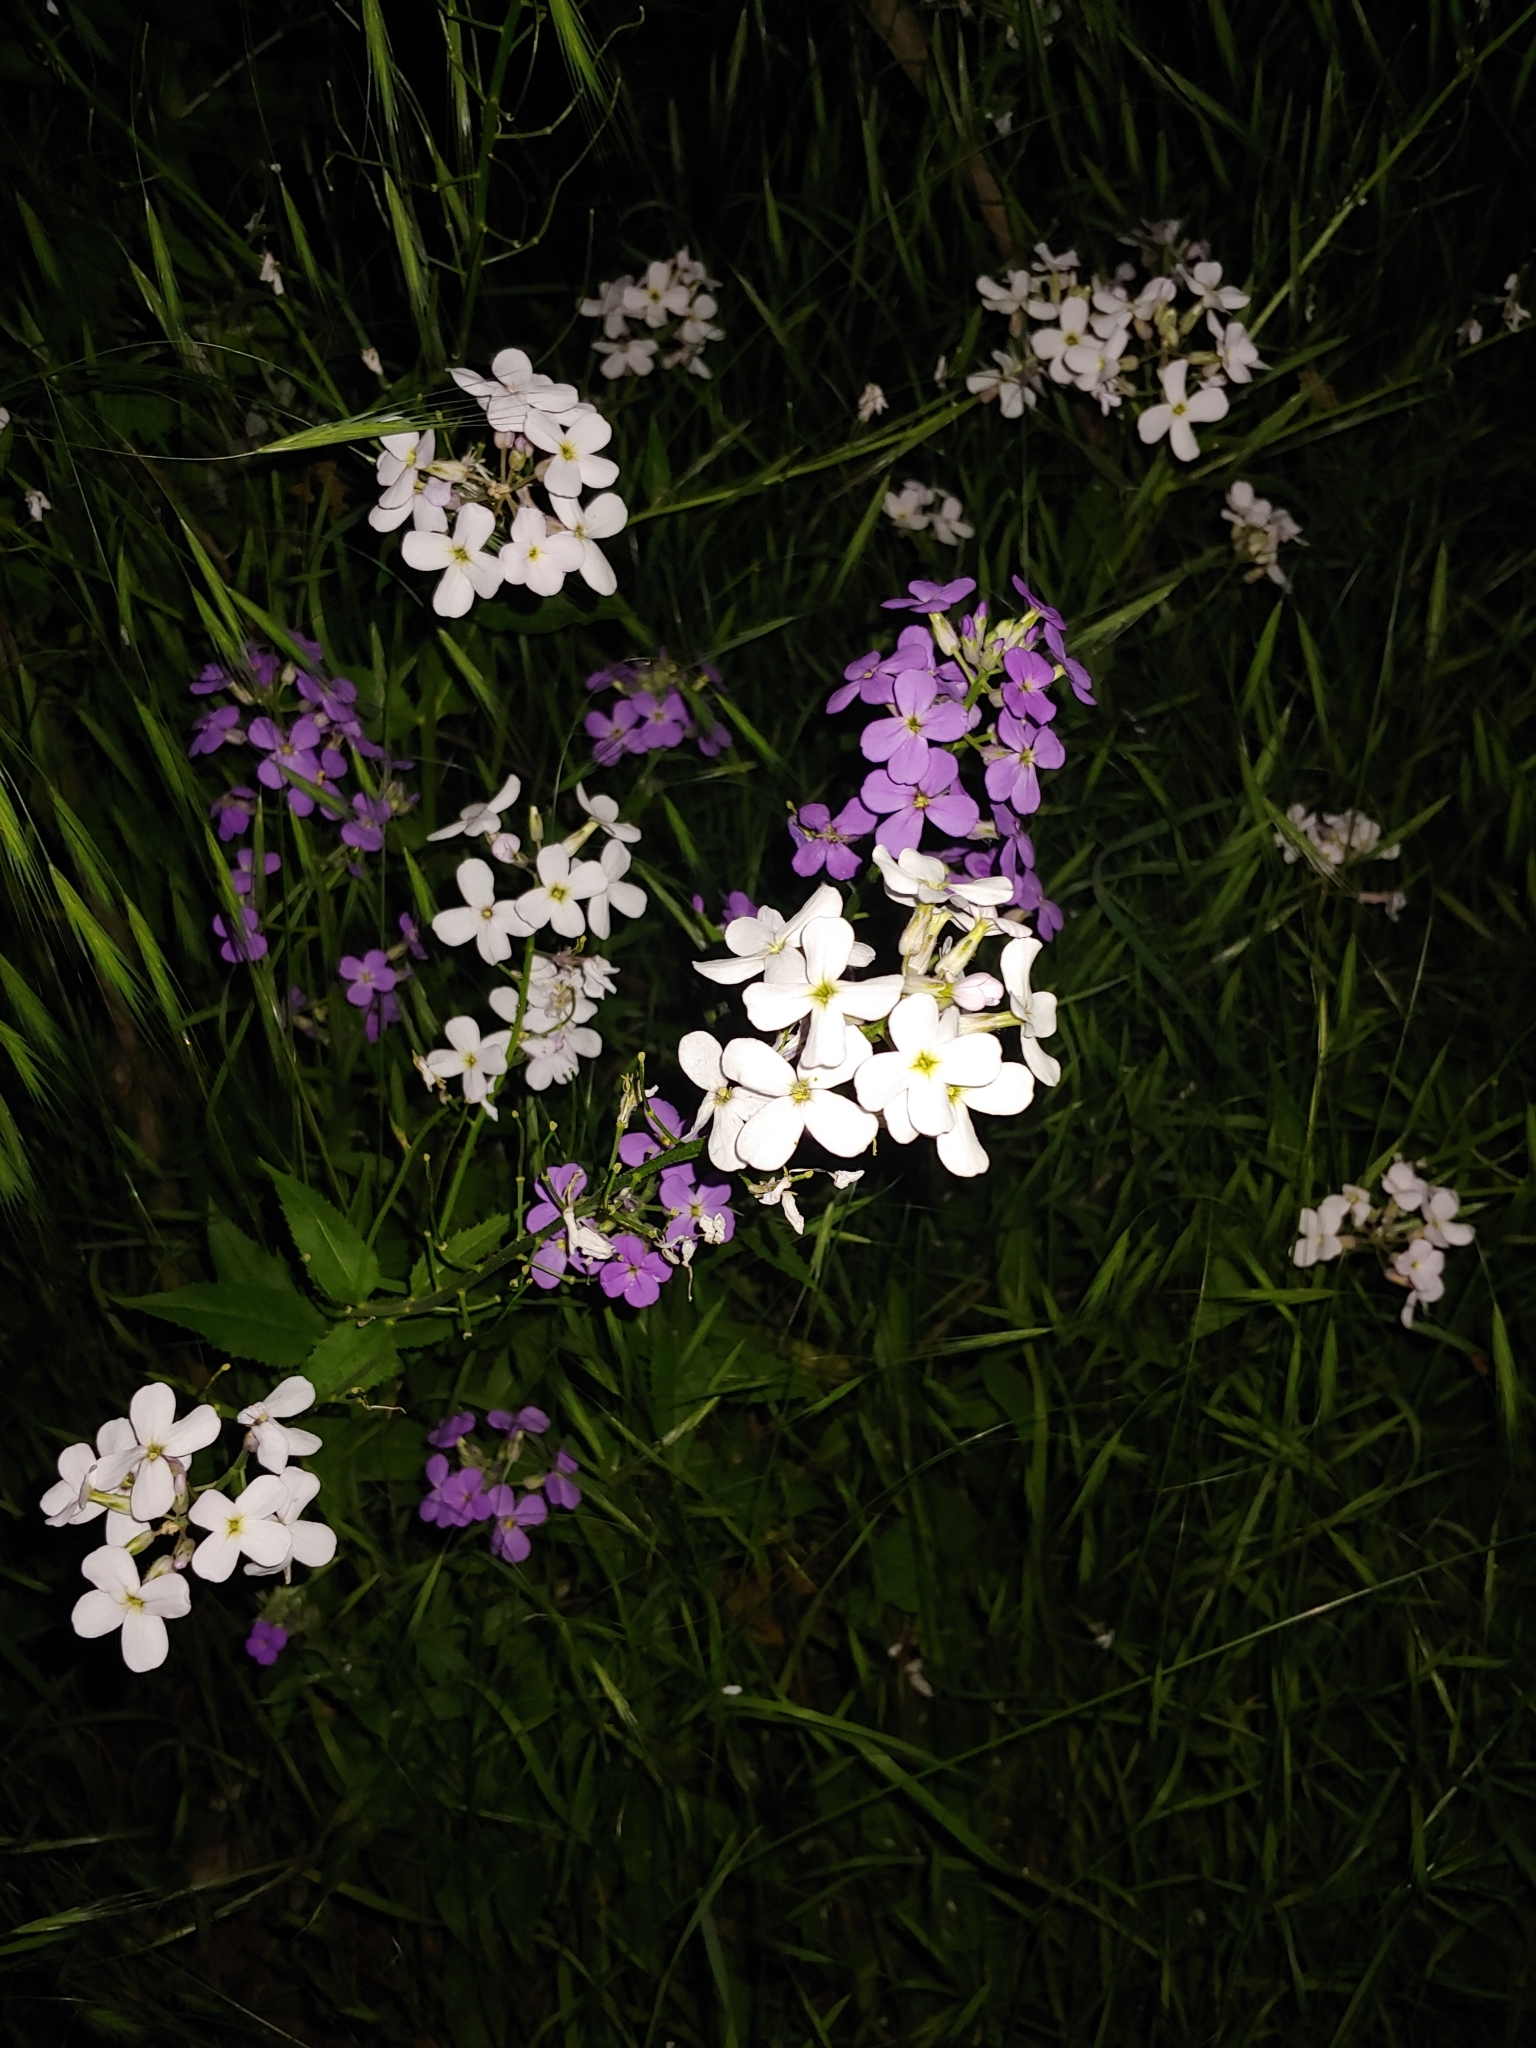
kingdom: Plantae
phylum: Tracheophyta
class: Magnoliopsida
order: Brassicales
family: Brassicaceae
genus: Hesperis
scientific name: Hesperis matronalis
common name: Dame's-violet
